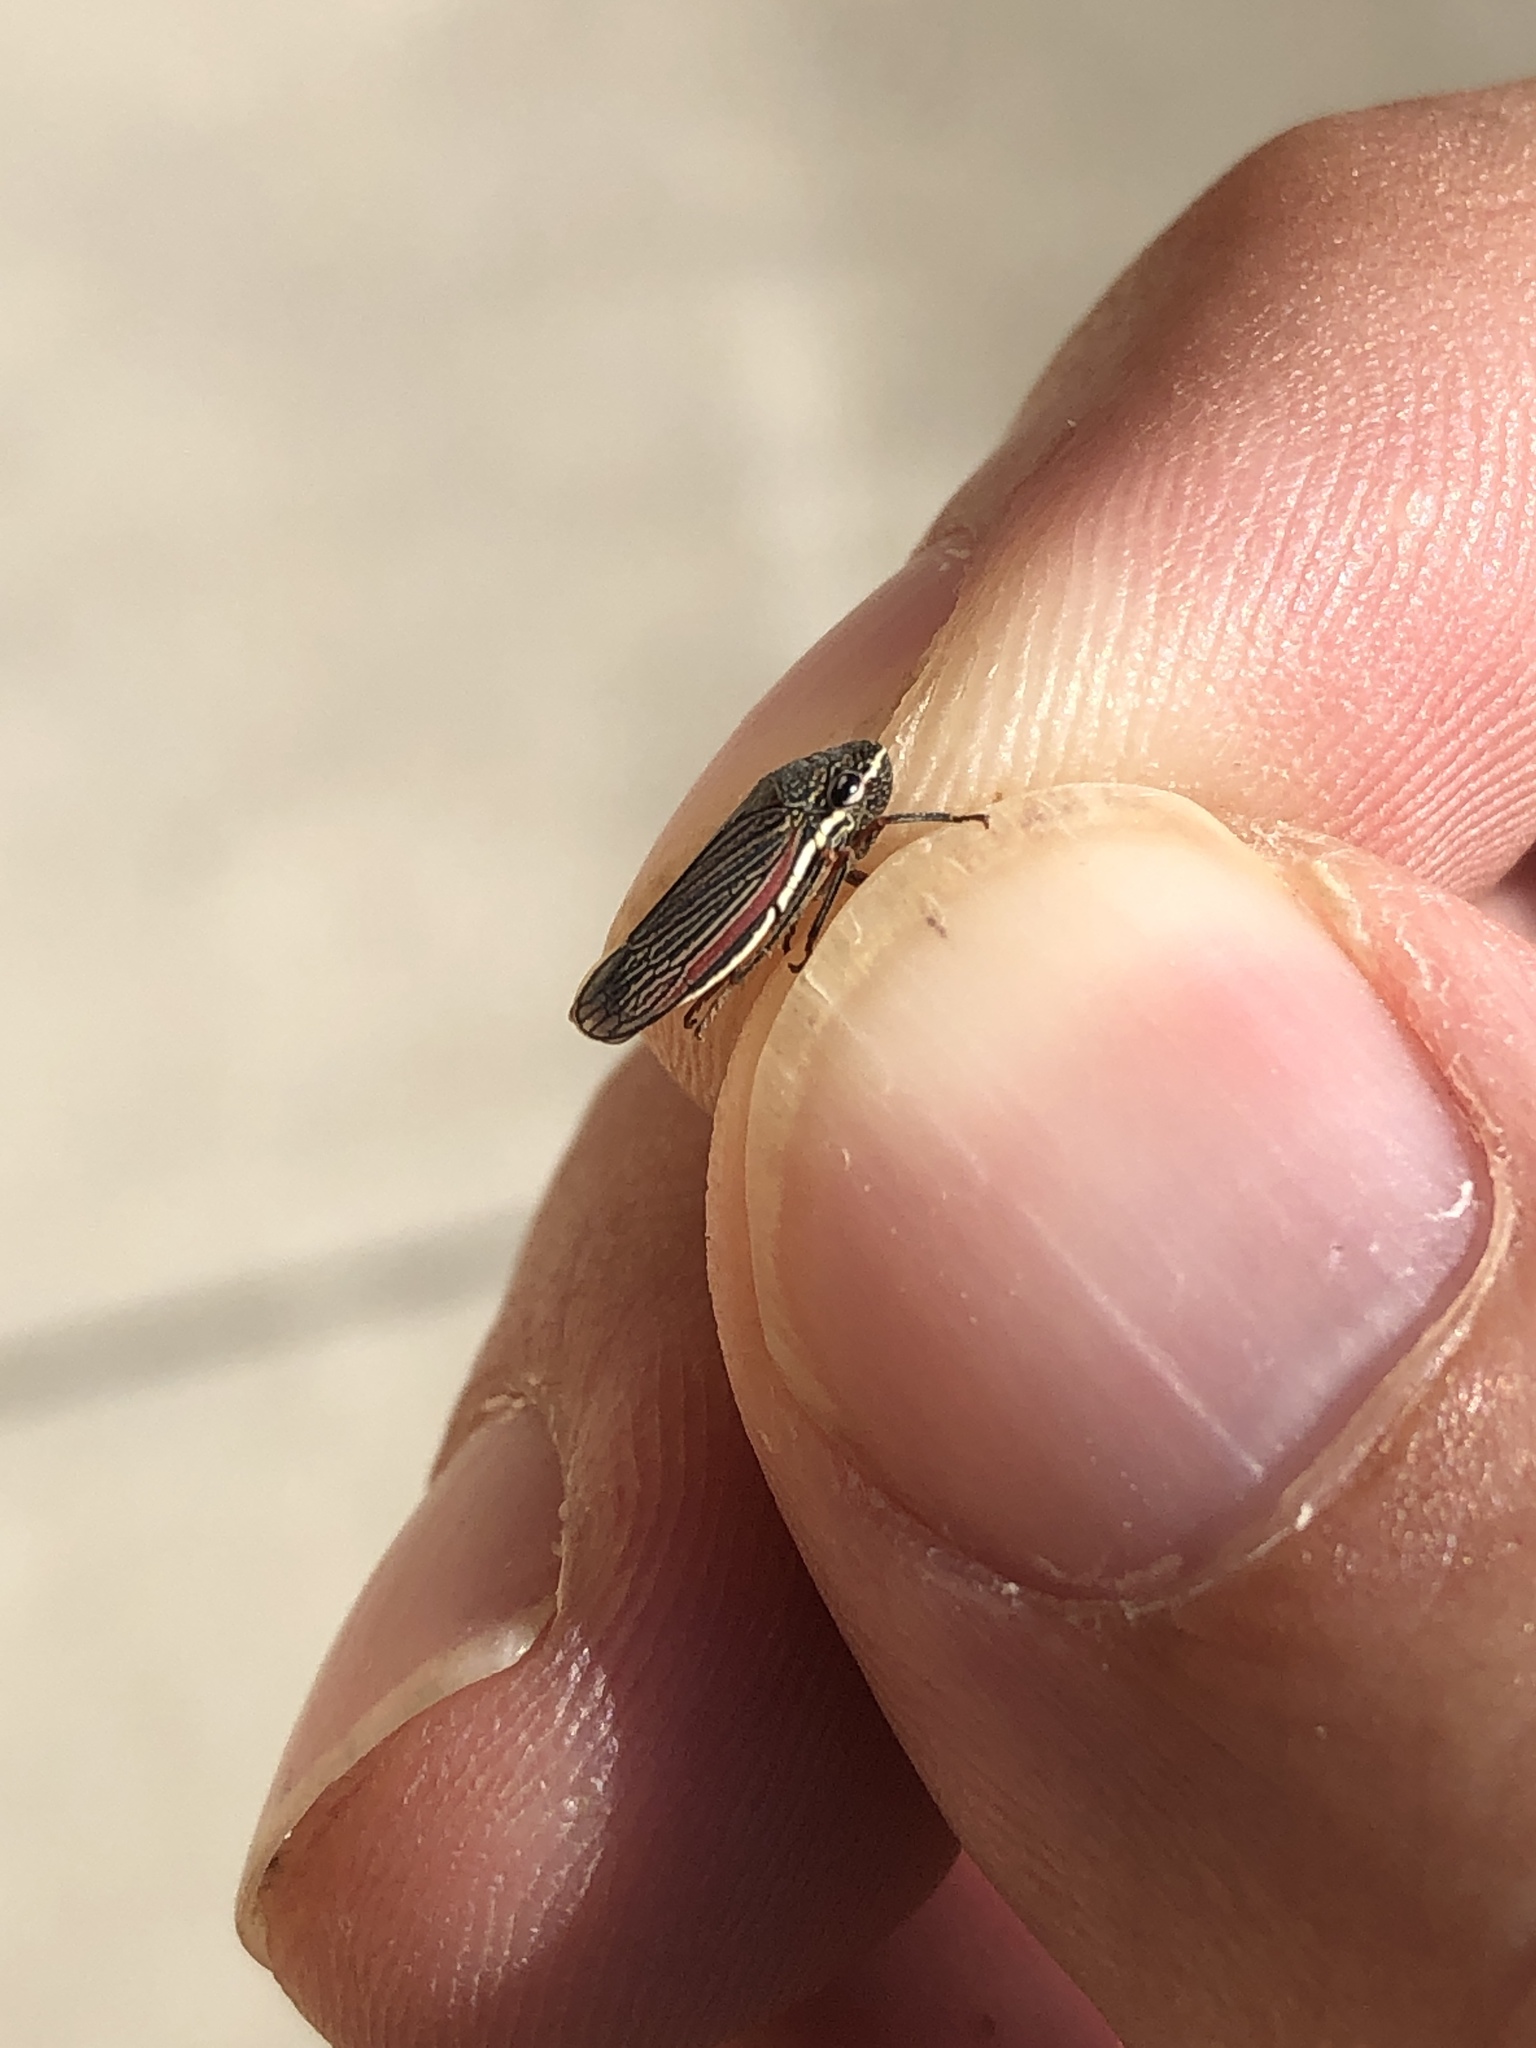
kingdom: Animalia
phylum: Arthropoda
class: Insecta
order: Hemiptera
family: Cicadellidae
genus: Cuerna
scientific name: Cuerna costalis
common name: Lateral-lined sharpshooter
